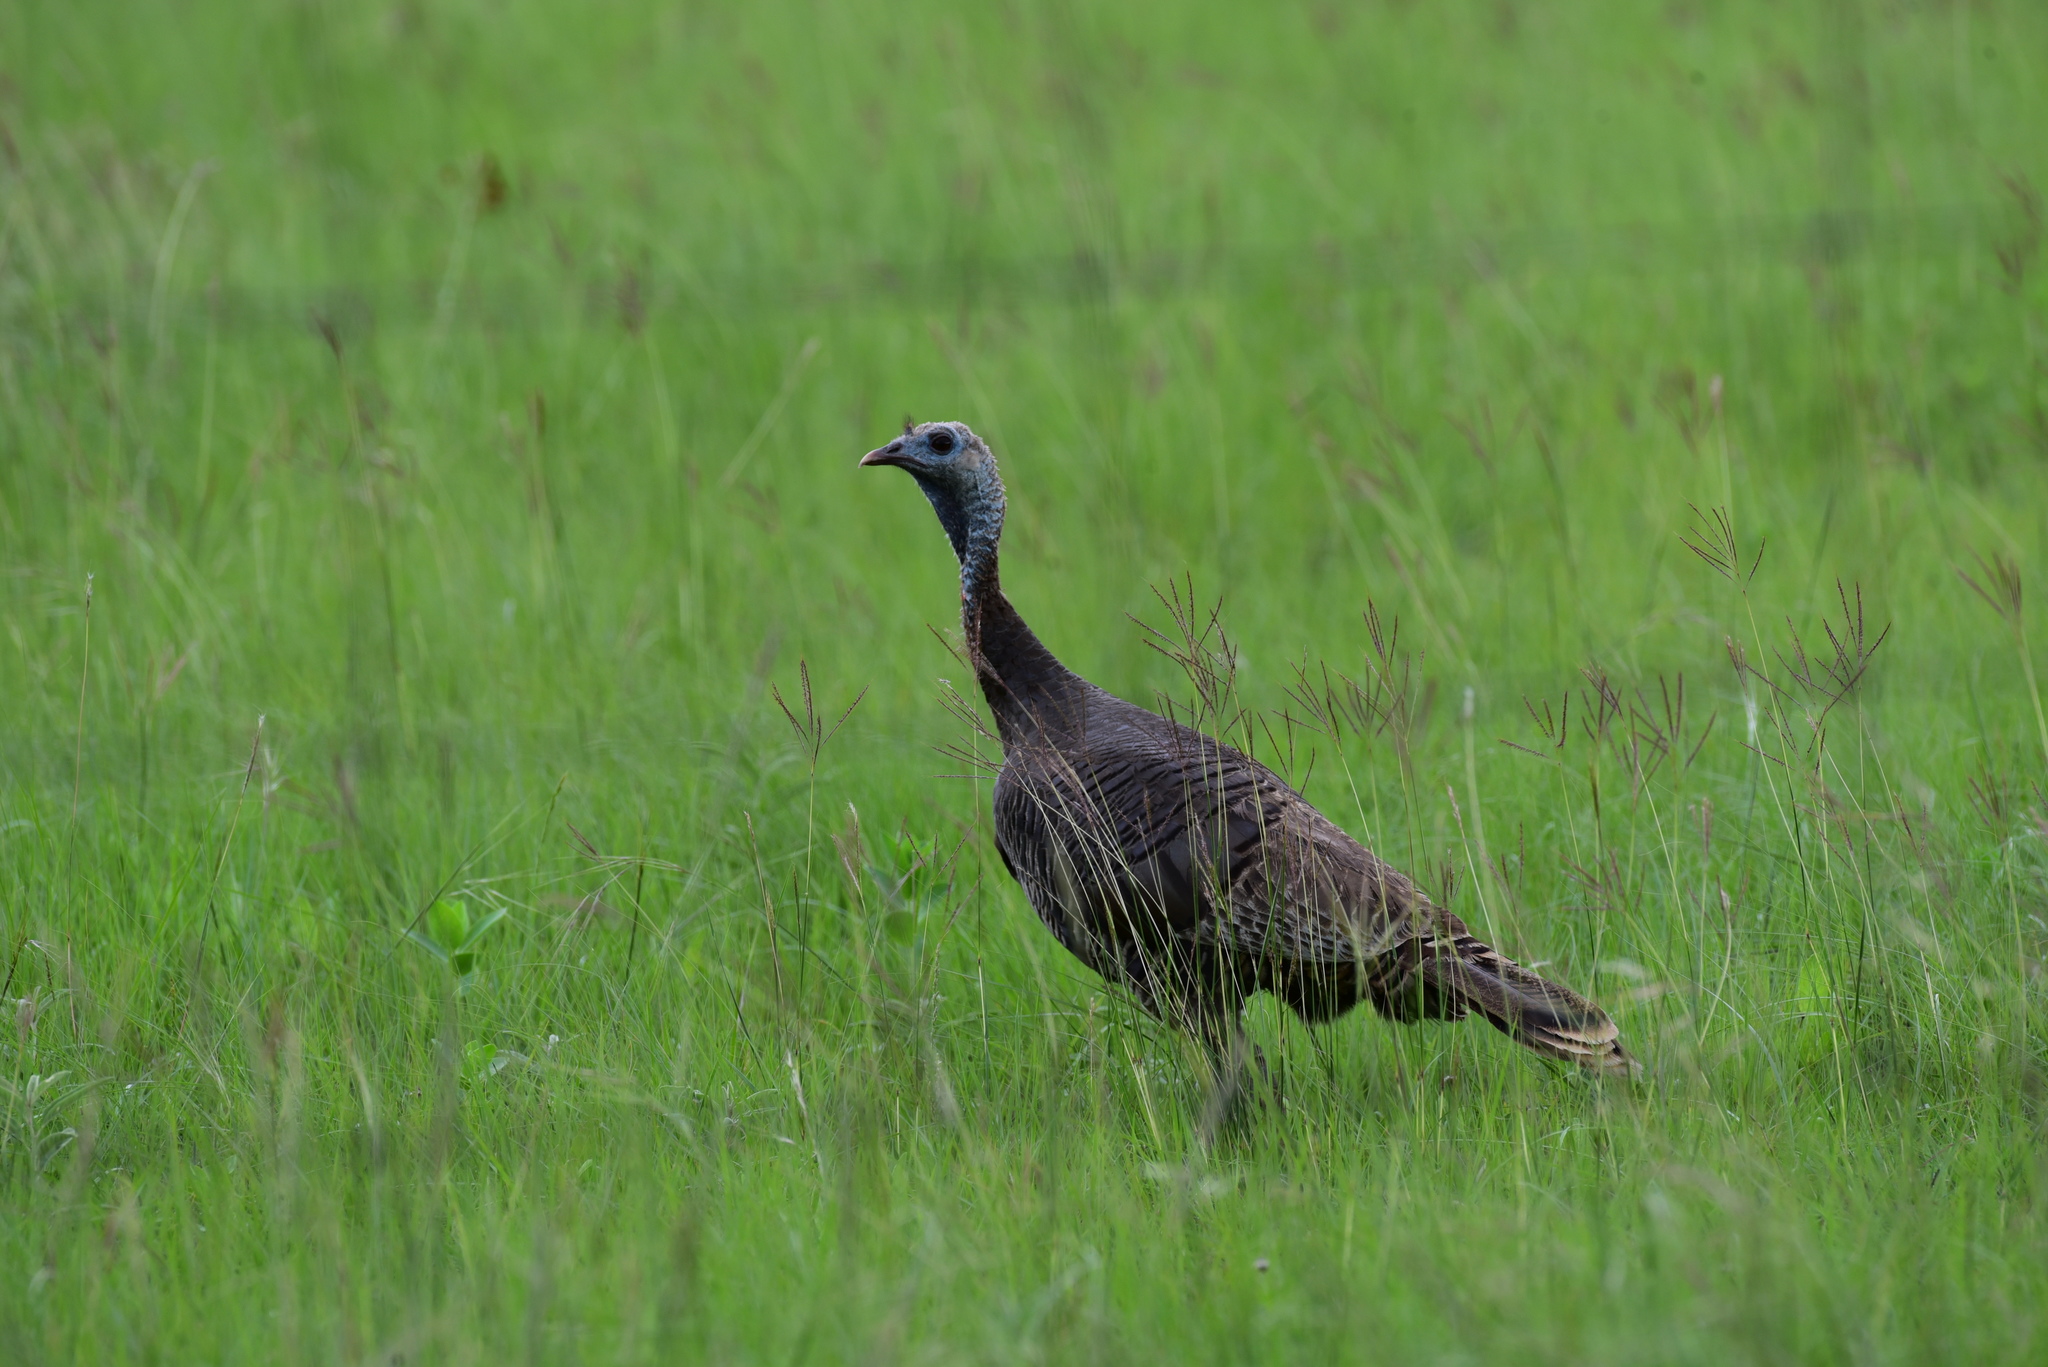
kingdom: Animalia
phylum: Chordata
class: Aves
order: Galliformes
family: Phasianidae
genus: Meleagris
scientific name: Meleagris gallopavo
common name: Wild turkey
